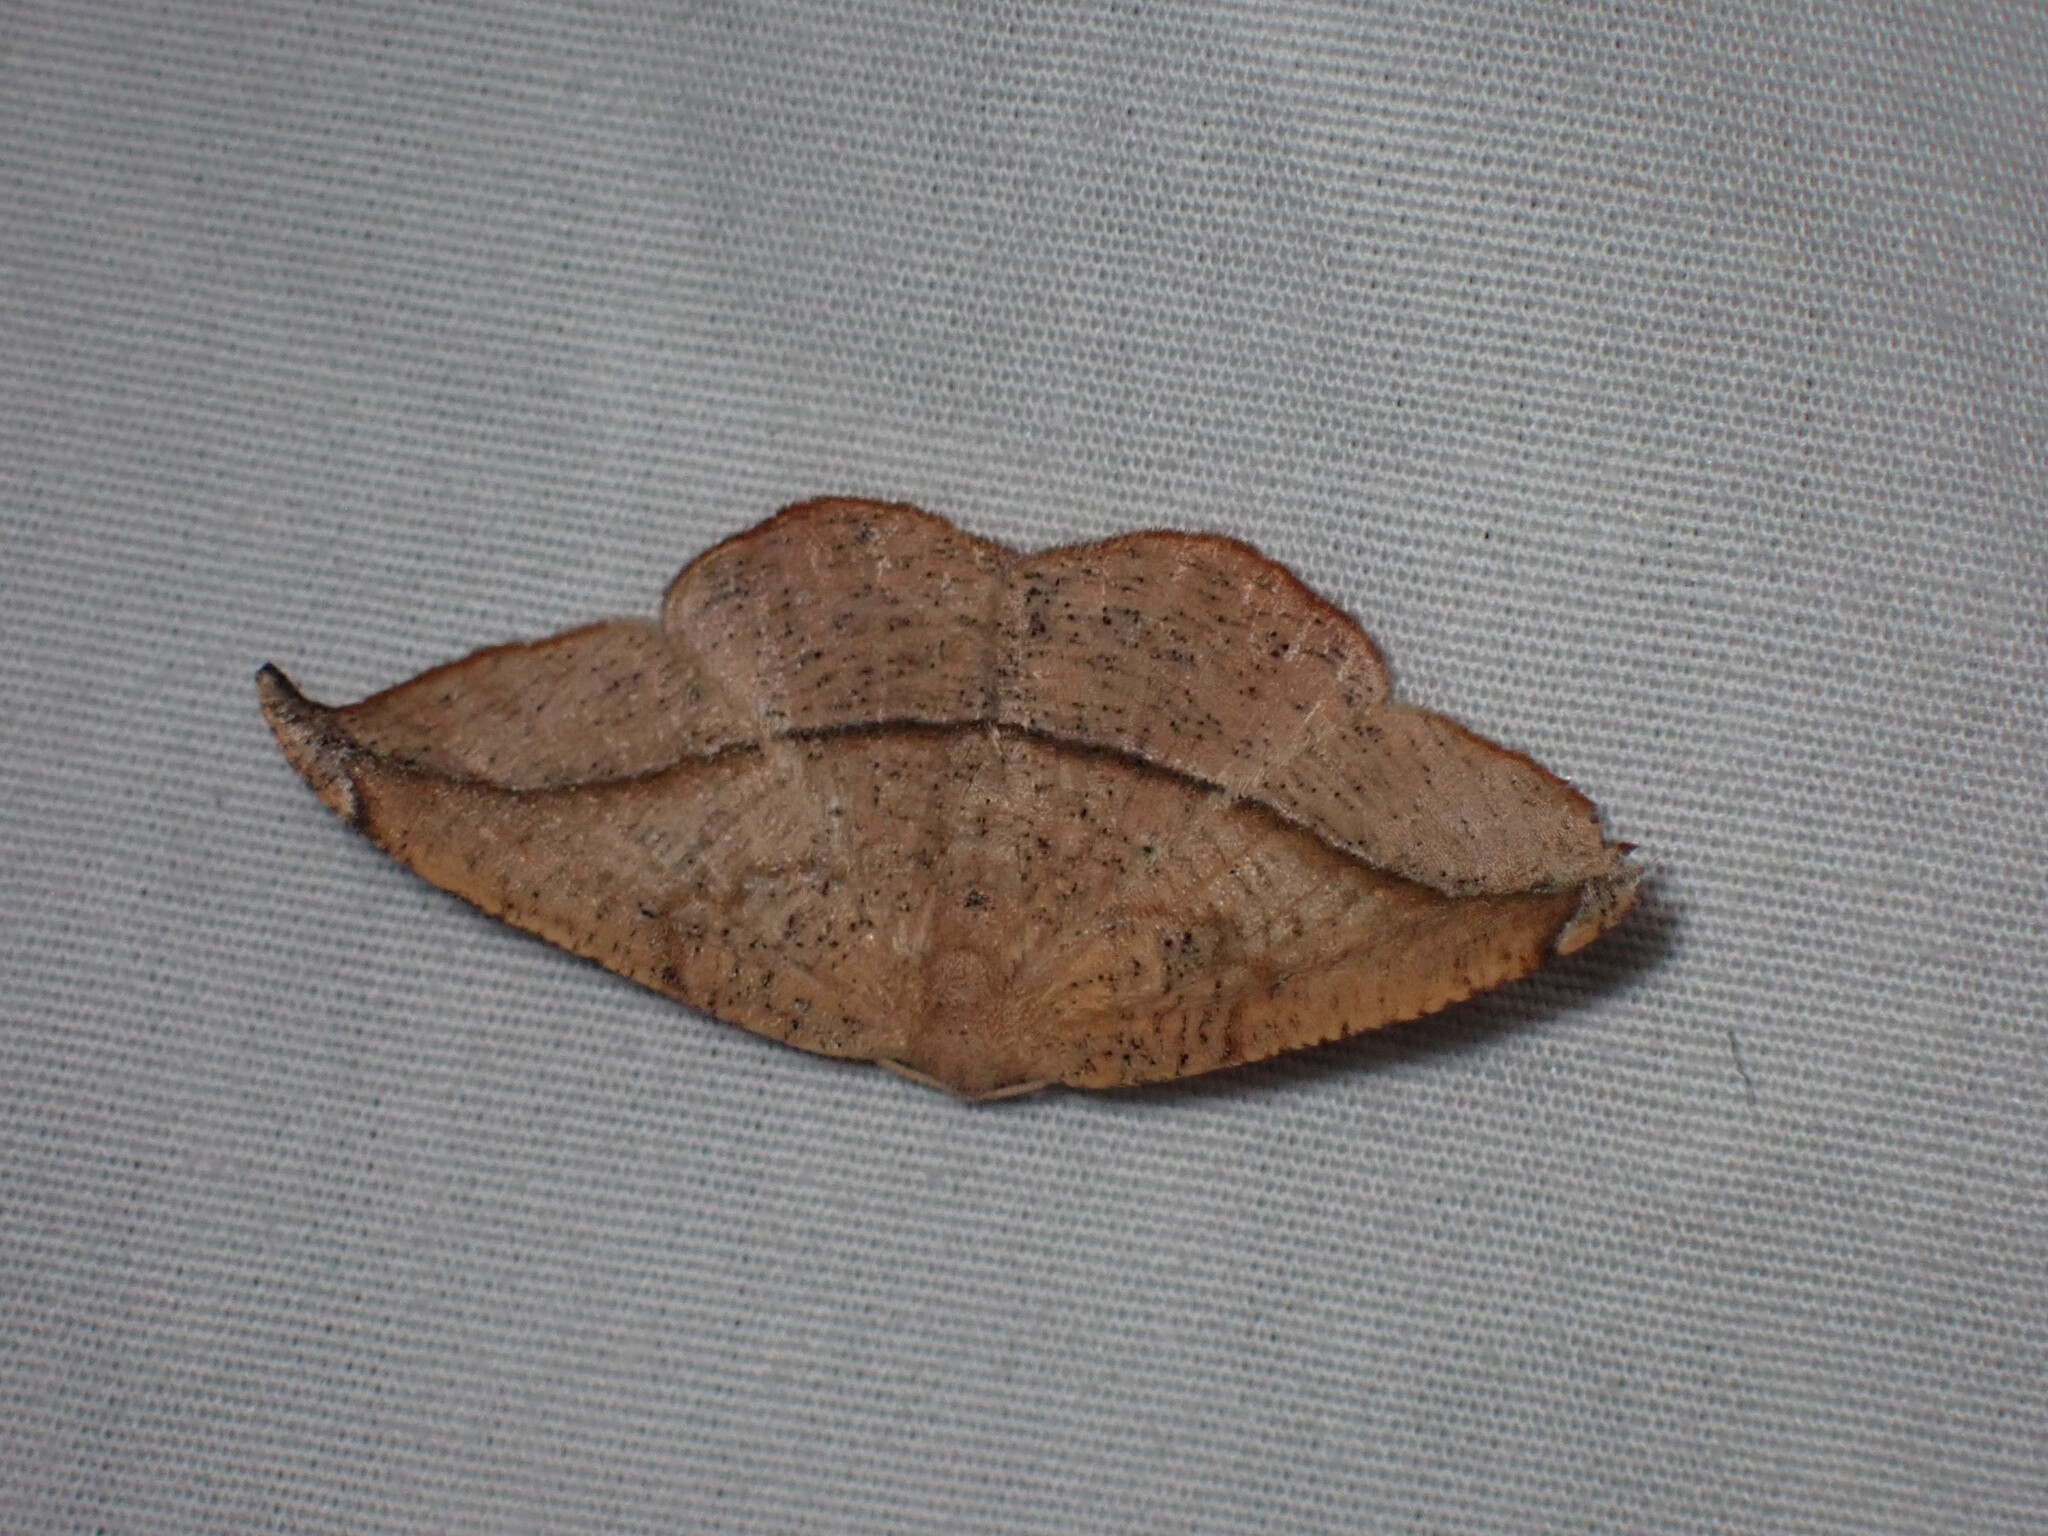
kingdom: Animalia
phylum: Arthropoda
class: Insecta
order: Lepidoptera
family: Geometridae
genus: Patalene
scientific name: Patalene olyzonaria
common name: Juniper geometer moth
